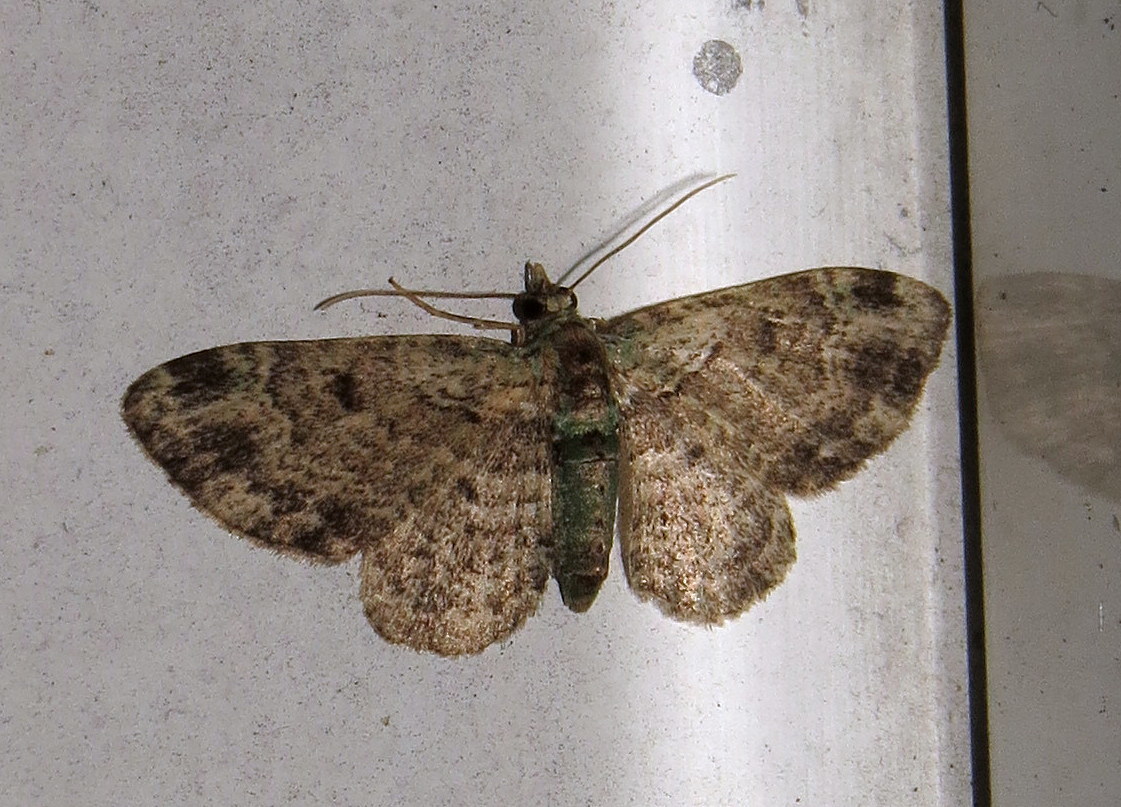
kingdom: Animalia
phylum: Arthropoda
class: Insecta
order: Lepidoptera
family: Geometridae
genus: Pasiphila
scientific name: Pasiphila rectangulata
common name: Green pug
